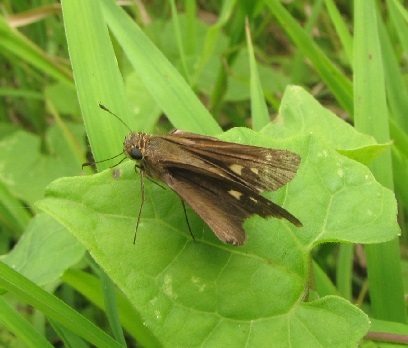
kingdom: Animalia
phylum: Arthropoda
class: Insecta
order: Lepidoptera
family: Hesperiidae
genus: Panoquina
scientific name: Panoquina ocola
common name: Ocola skipper
